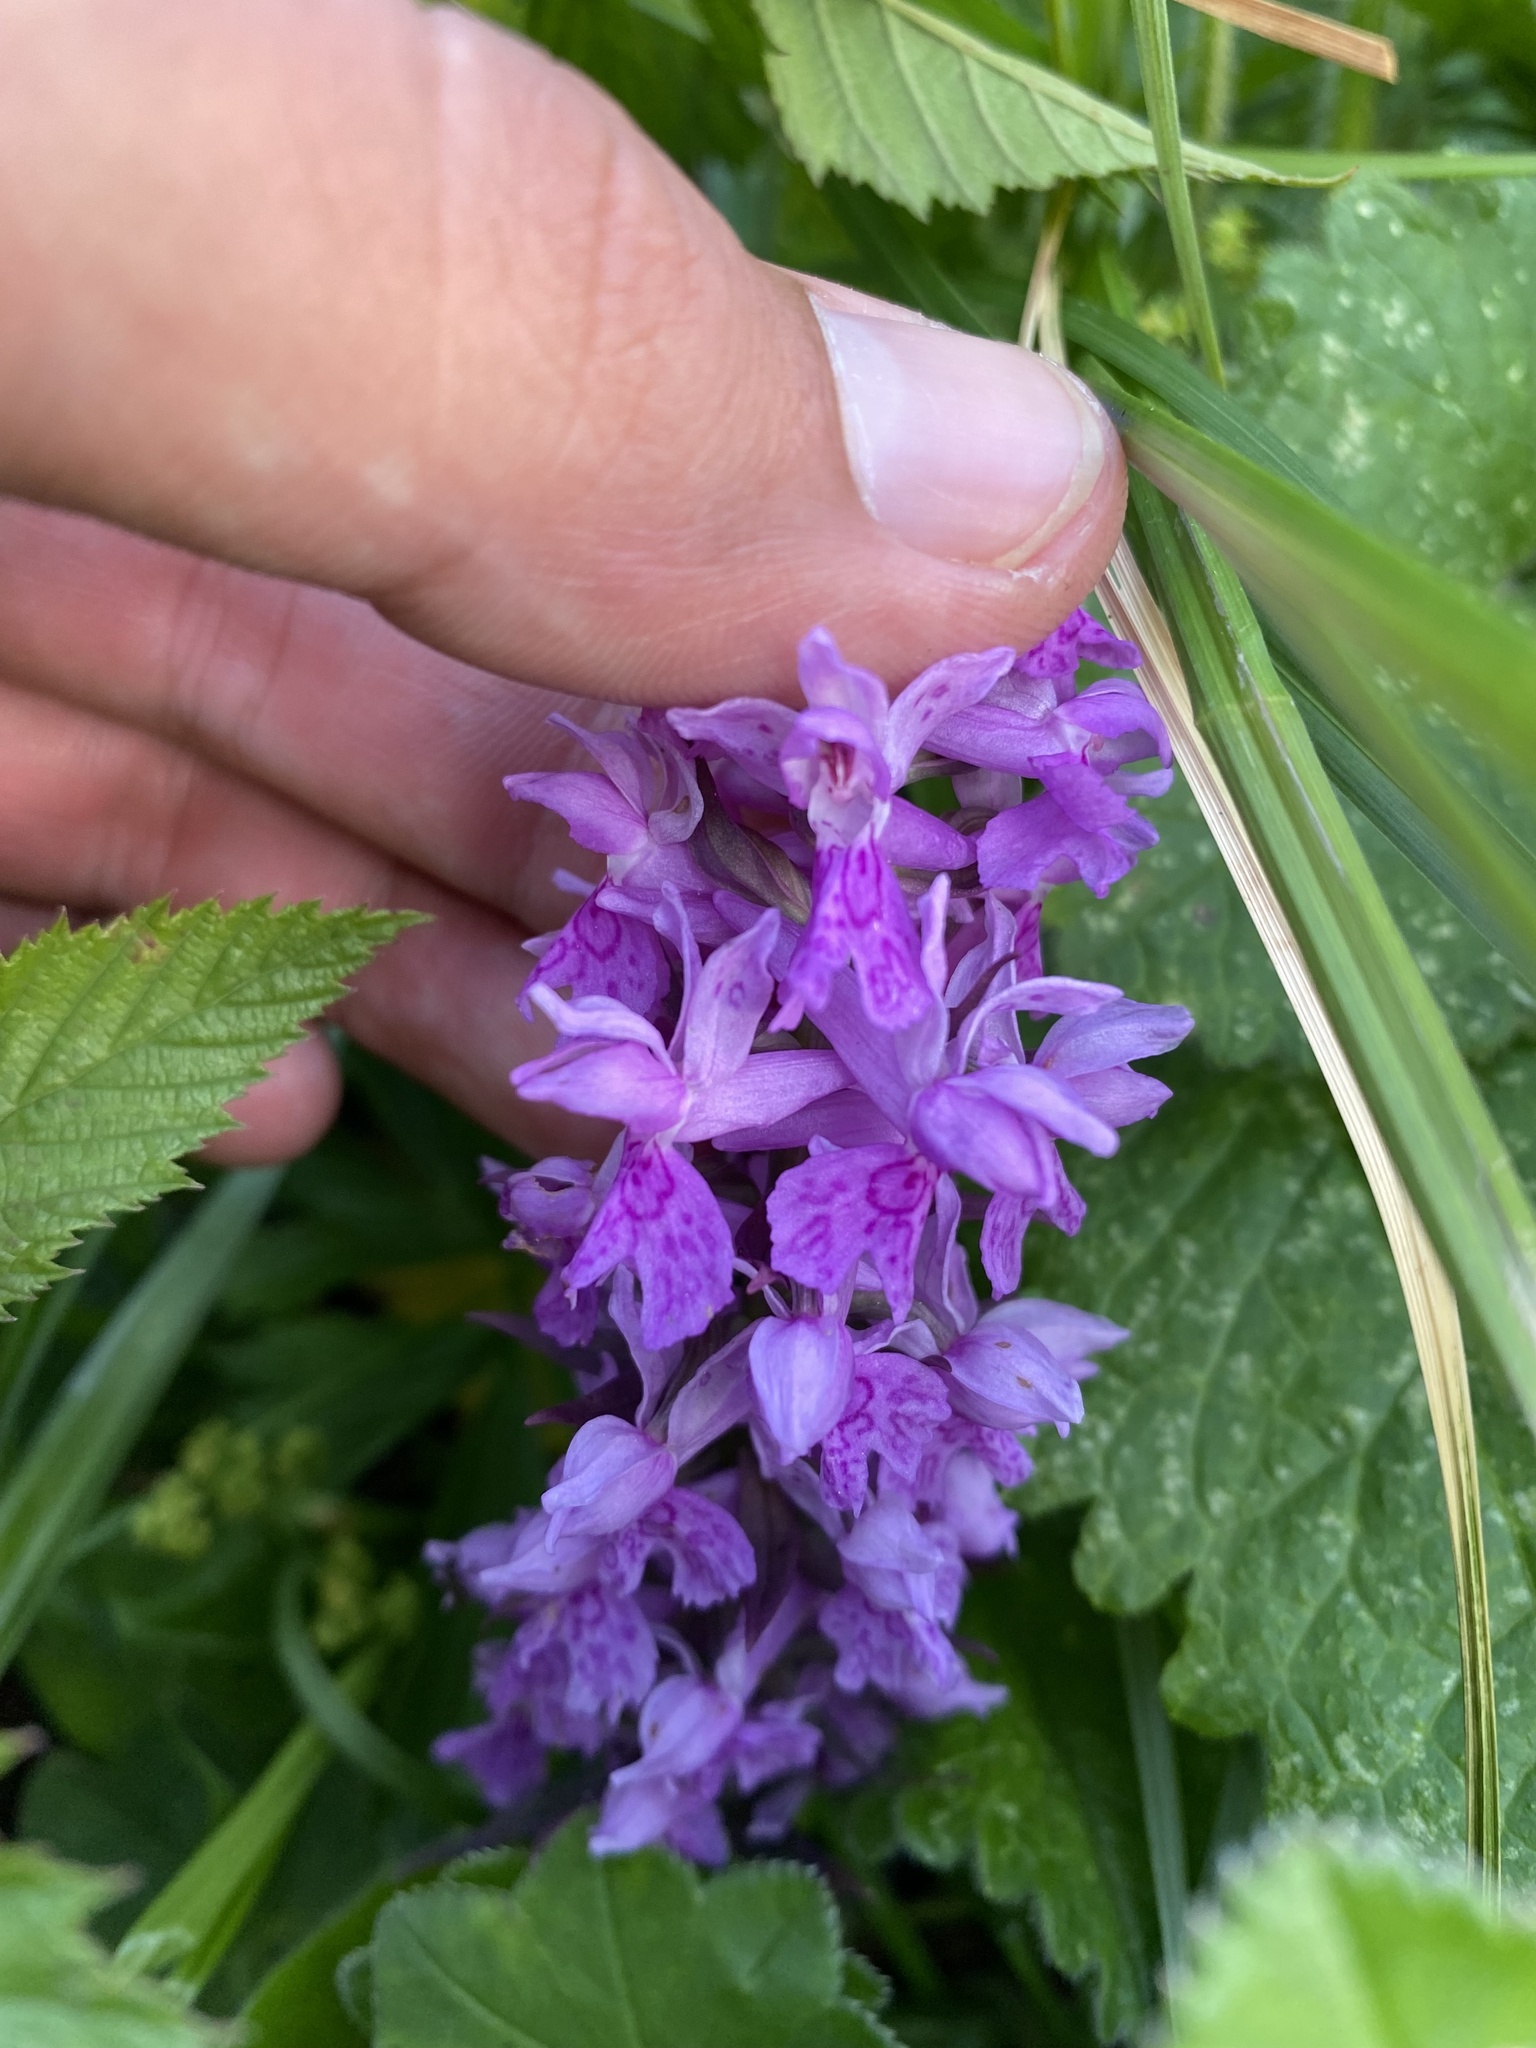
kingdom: Plantae
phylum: Tracheophyta
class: Liliopsida
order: Asparagales
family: Orchidaceae
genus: Dactylorhiza
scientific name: Dactylorhiza urvilleana
